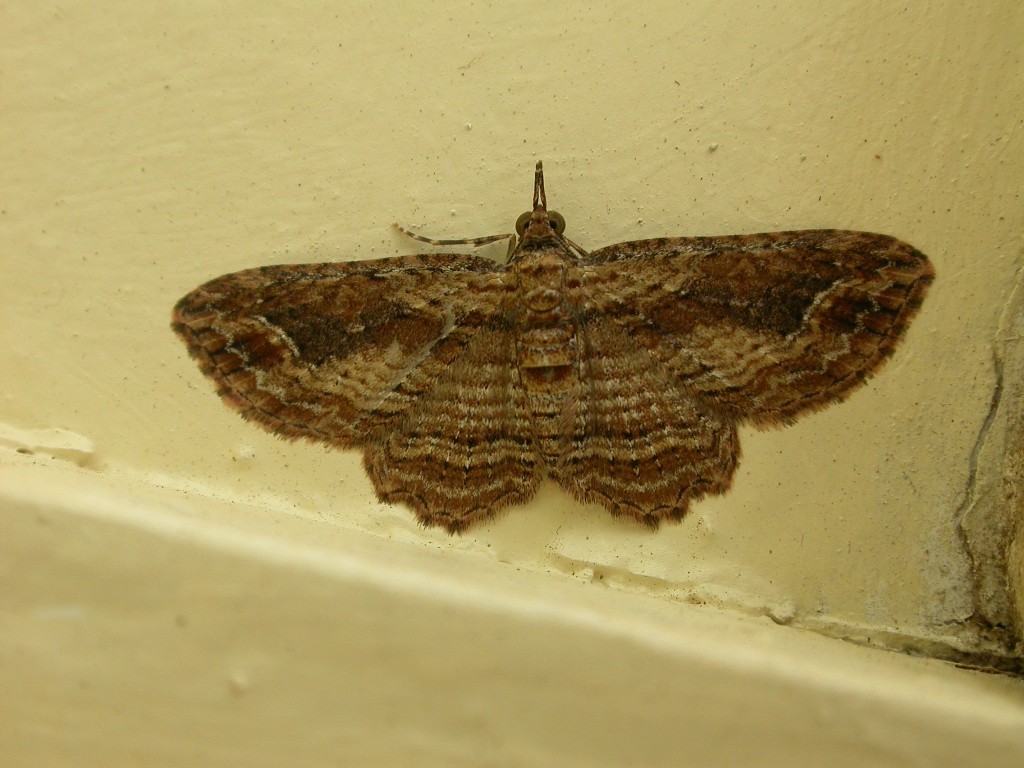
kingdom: Animalia
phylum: Arthropoda
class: Insecta
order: Lepidoptera
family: Geometridae
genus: Chloroclystis
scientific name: Chloroclystis filata
